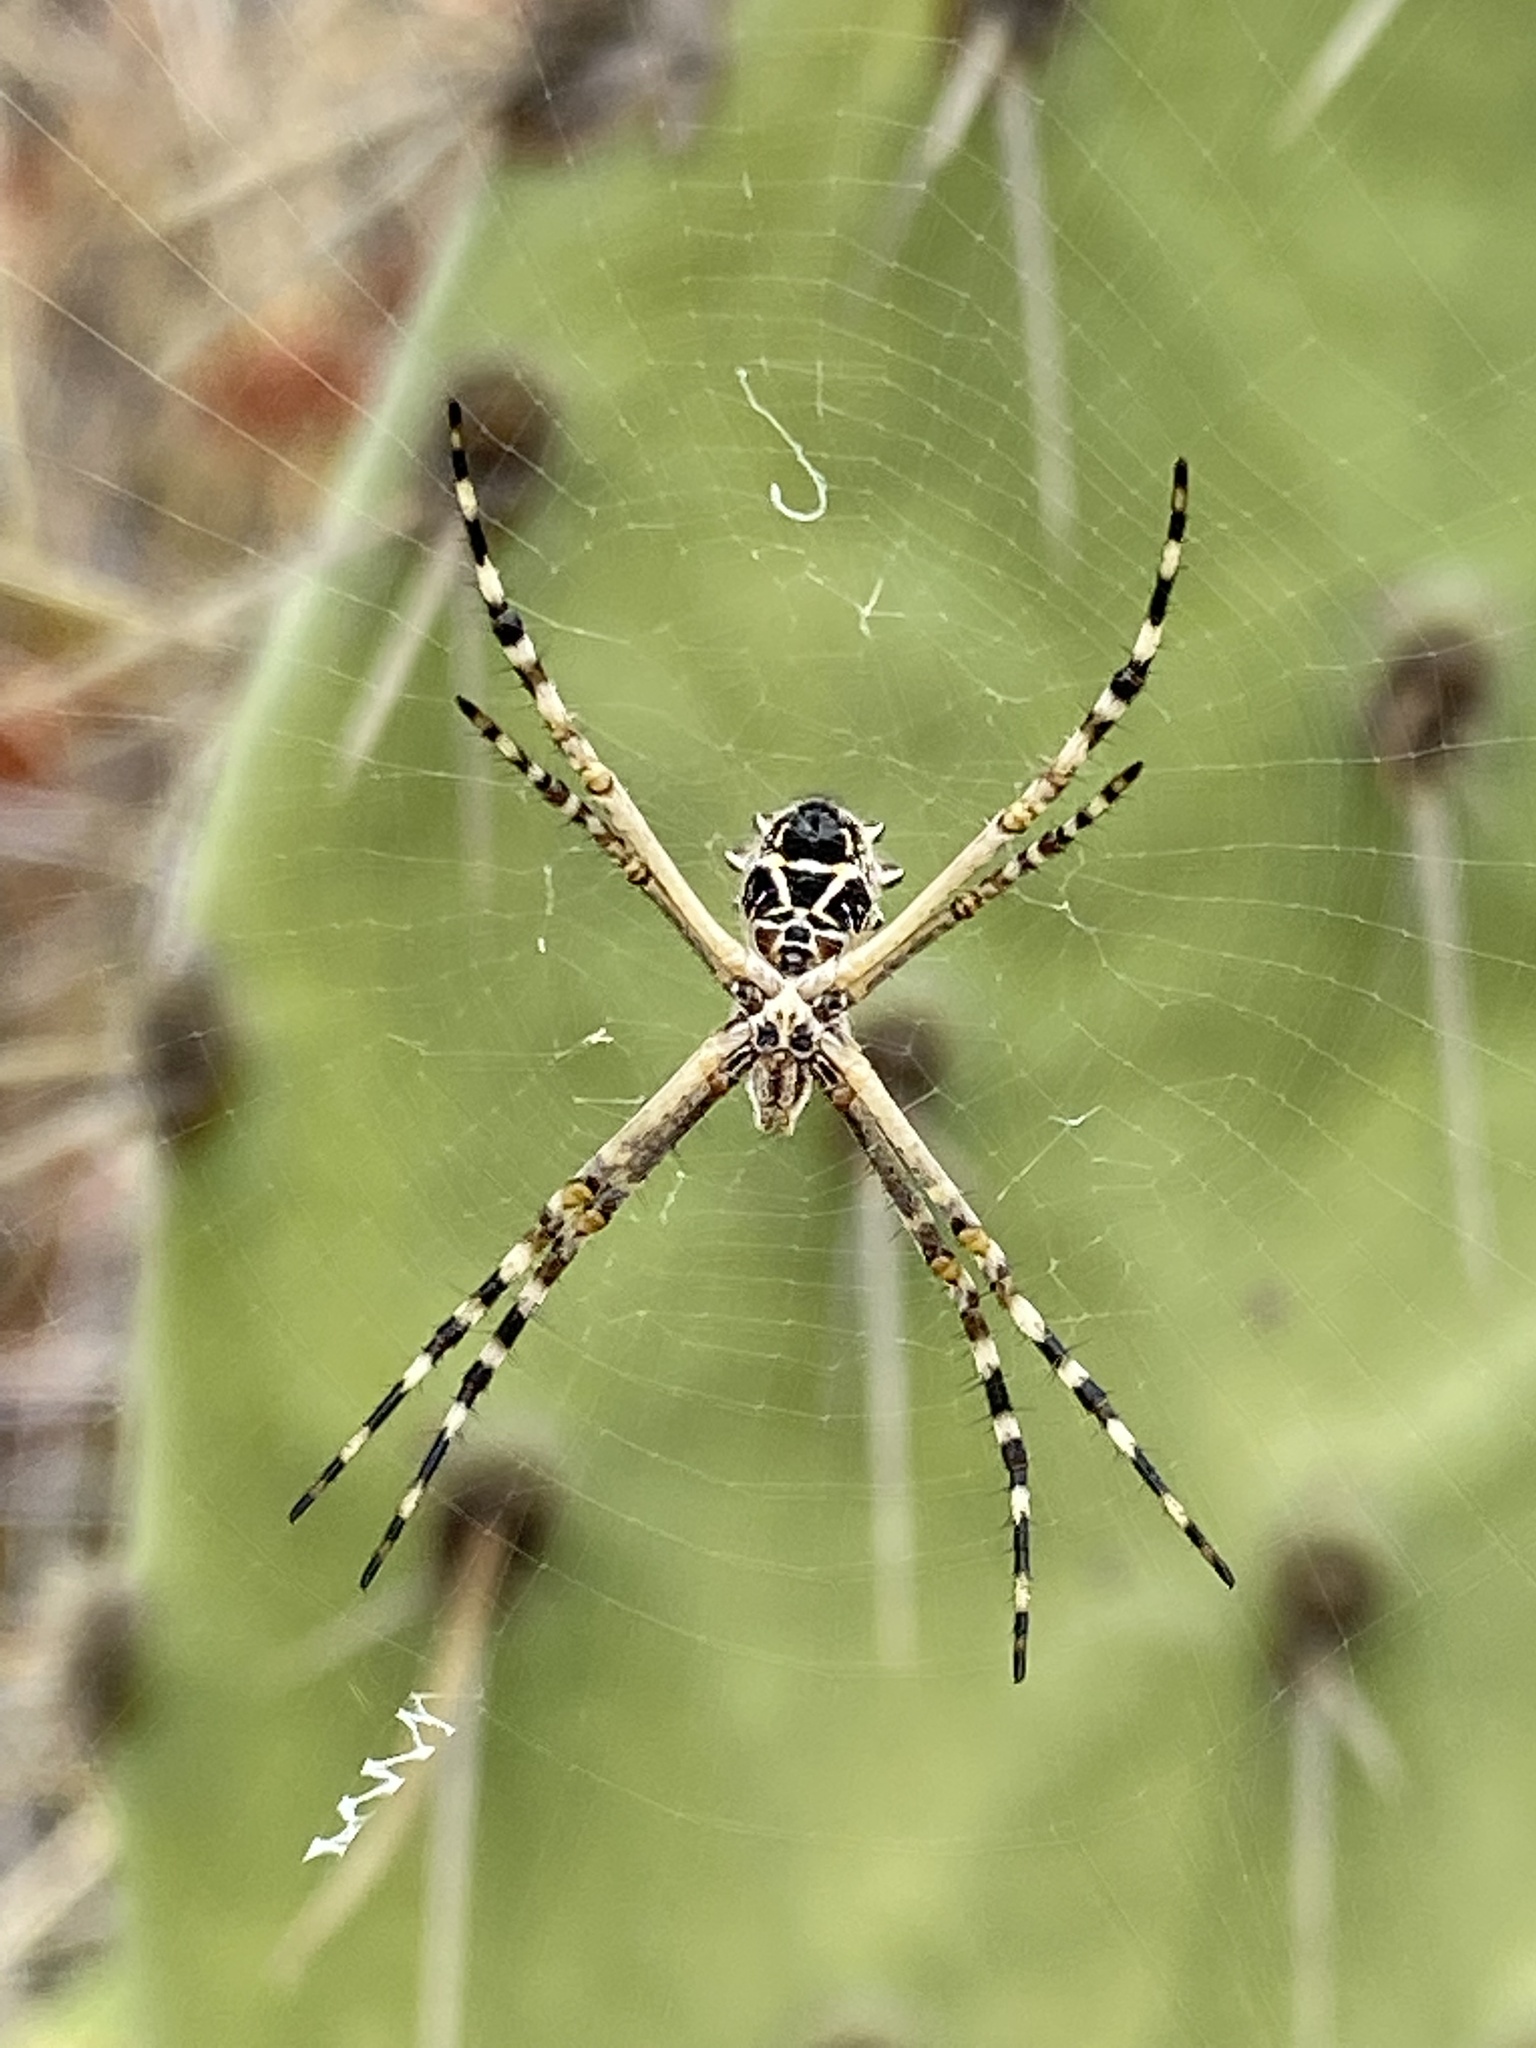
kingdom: Animalia
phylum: Arthropoda
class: Arachnida
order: Araneae
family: Araneidae
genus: Argiope
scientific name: Argiope argentata
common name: Orb weavers
